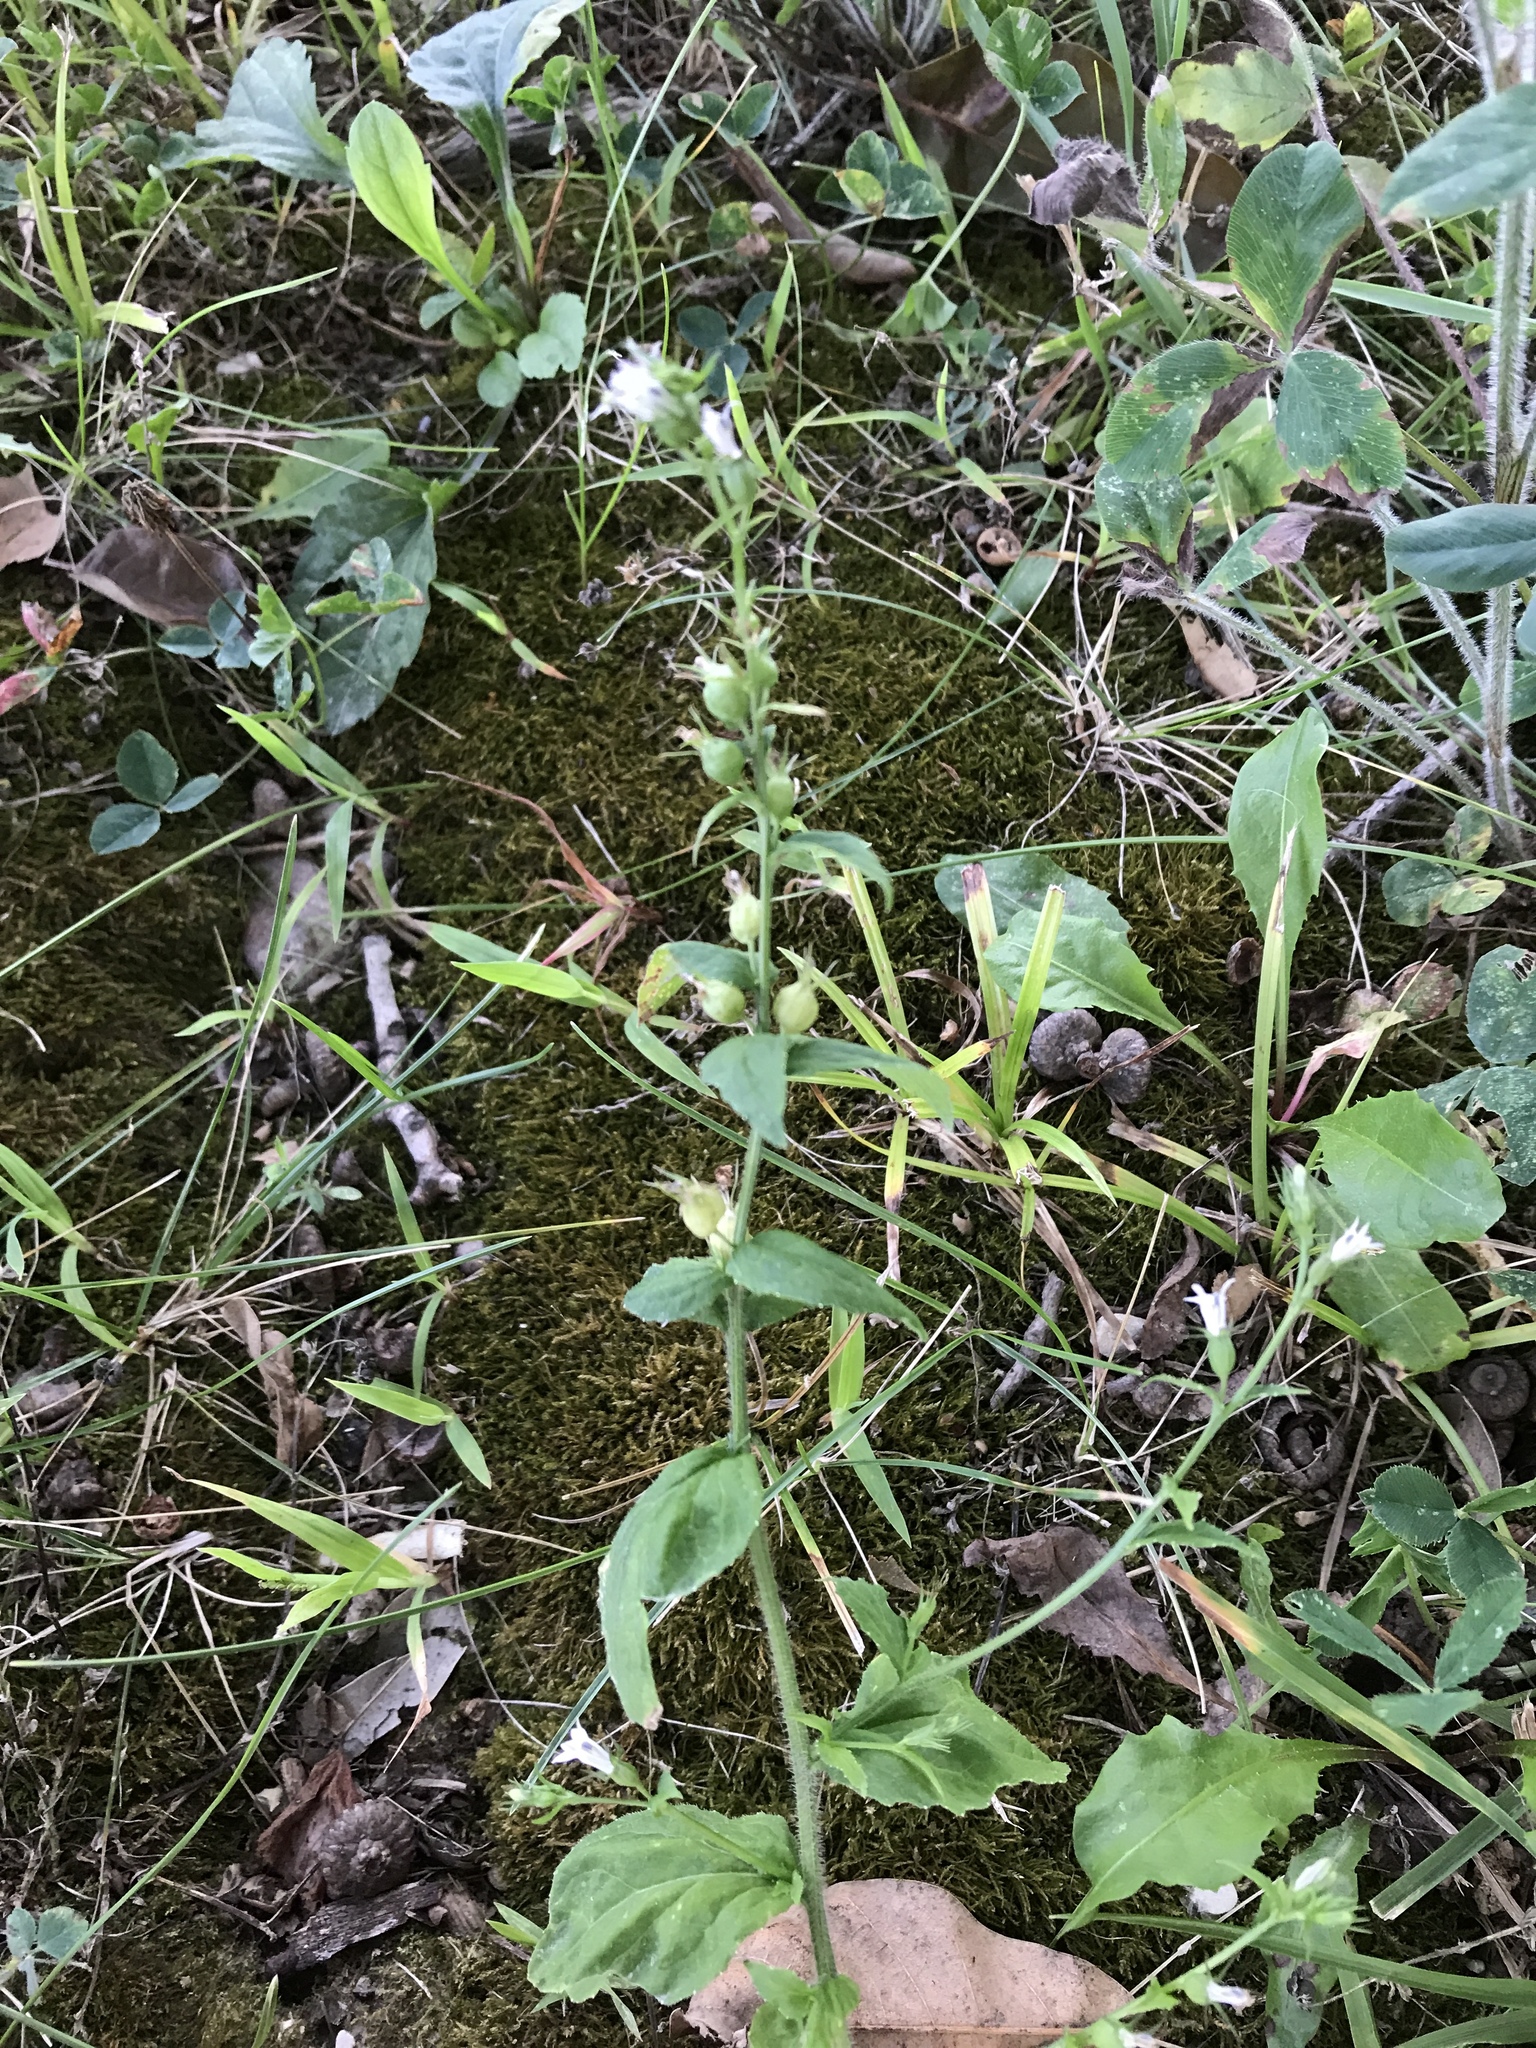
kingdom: Plantae
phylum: Tracheophyta
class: Magnoliopsida
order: Asterales
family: Campanulaceae
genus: Lobelia
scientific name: Lobelia inflata
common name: Indian tobacco
